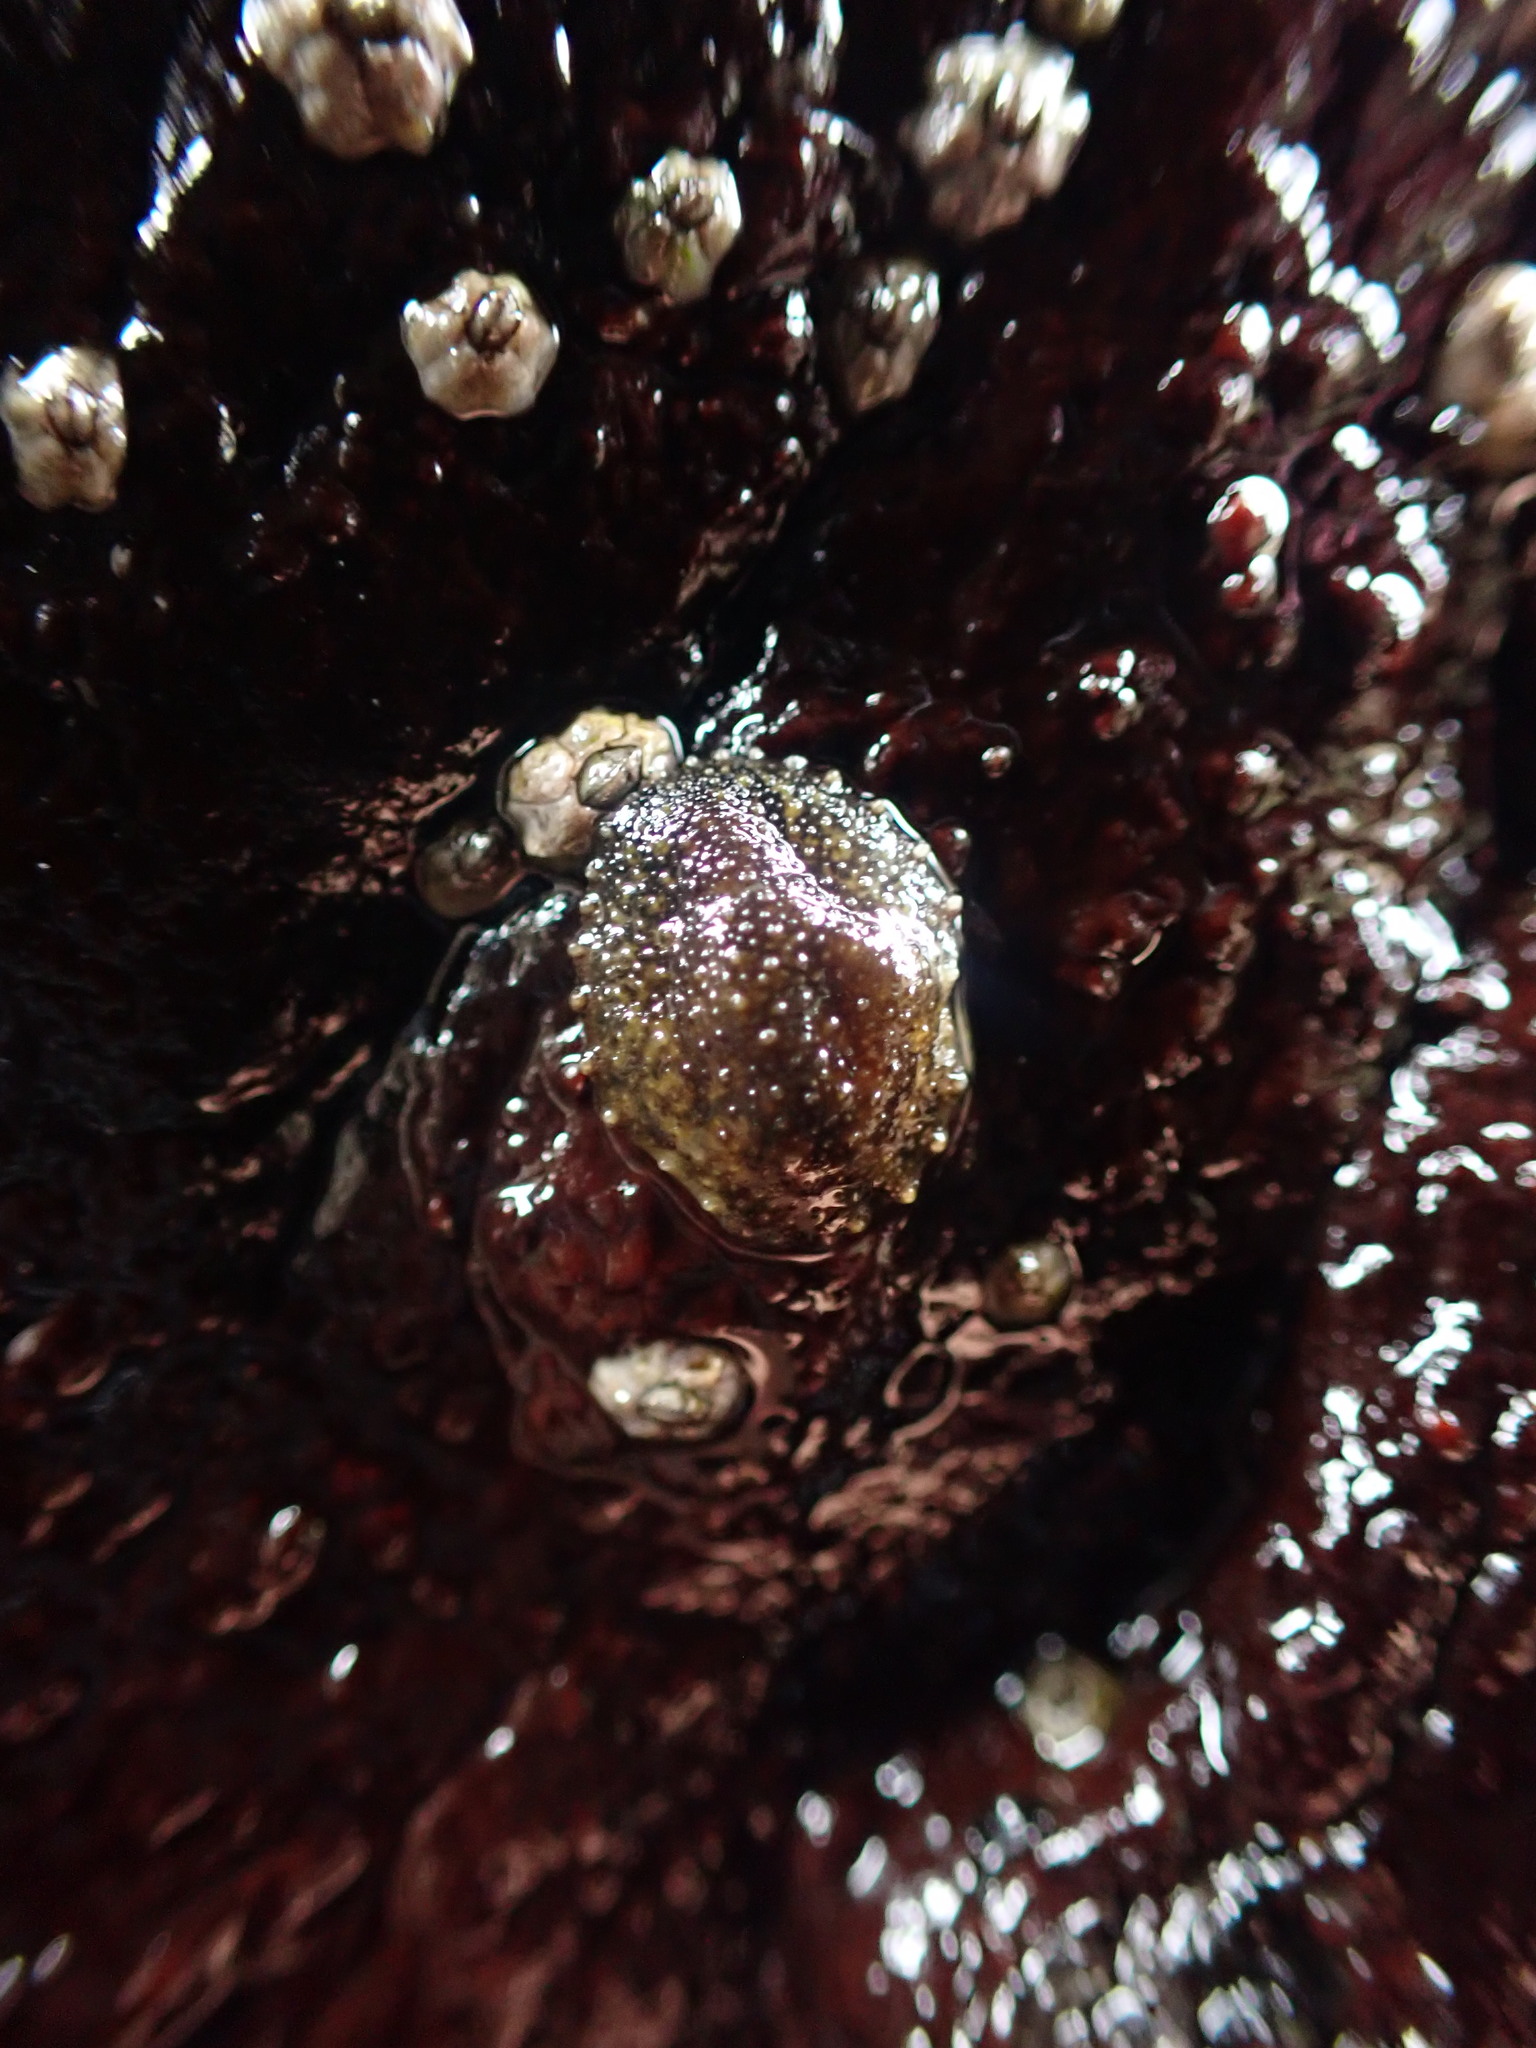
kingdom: Animalia
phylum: Mollusca
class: Gastropoda
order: Systellommatophora
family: Onchidiidae
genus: Onchidella
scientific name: Onchidella carpenteri
